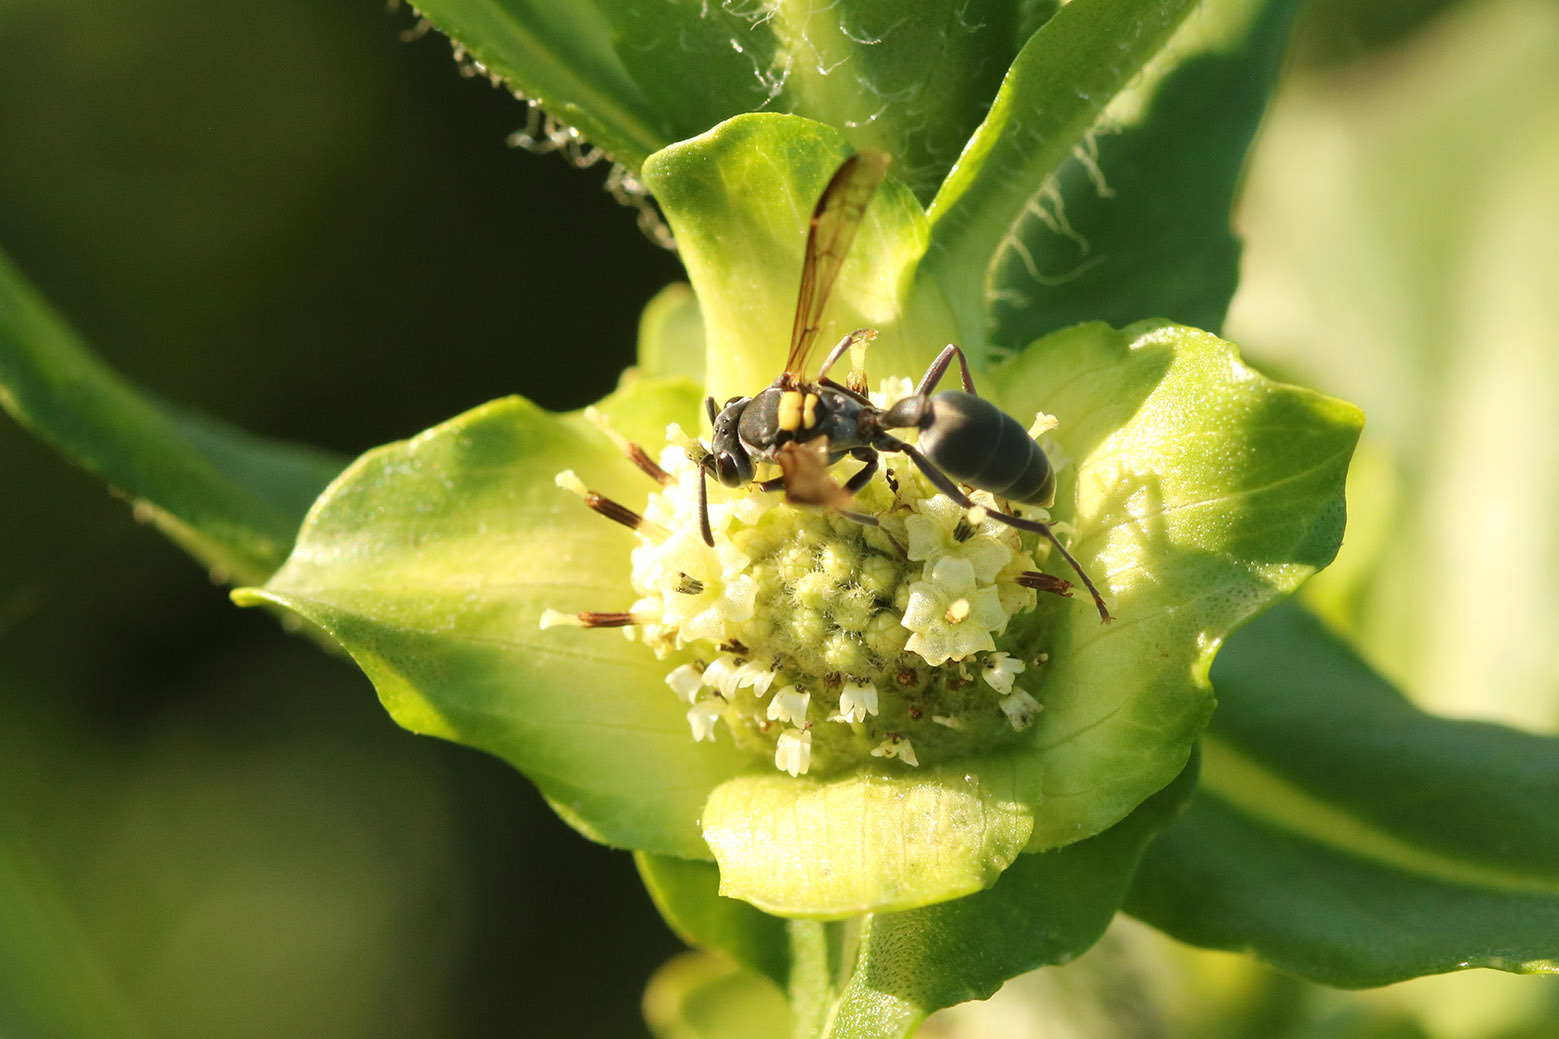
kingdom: Animalia
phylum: Arthropoda
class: Insecta
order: Hymenoptera
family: Eumenidae
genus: Polybia
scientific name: Polybia scutellaris
